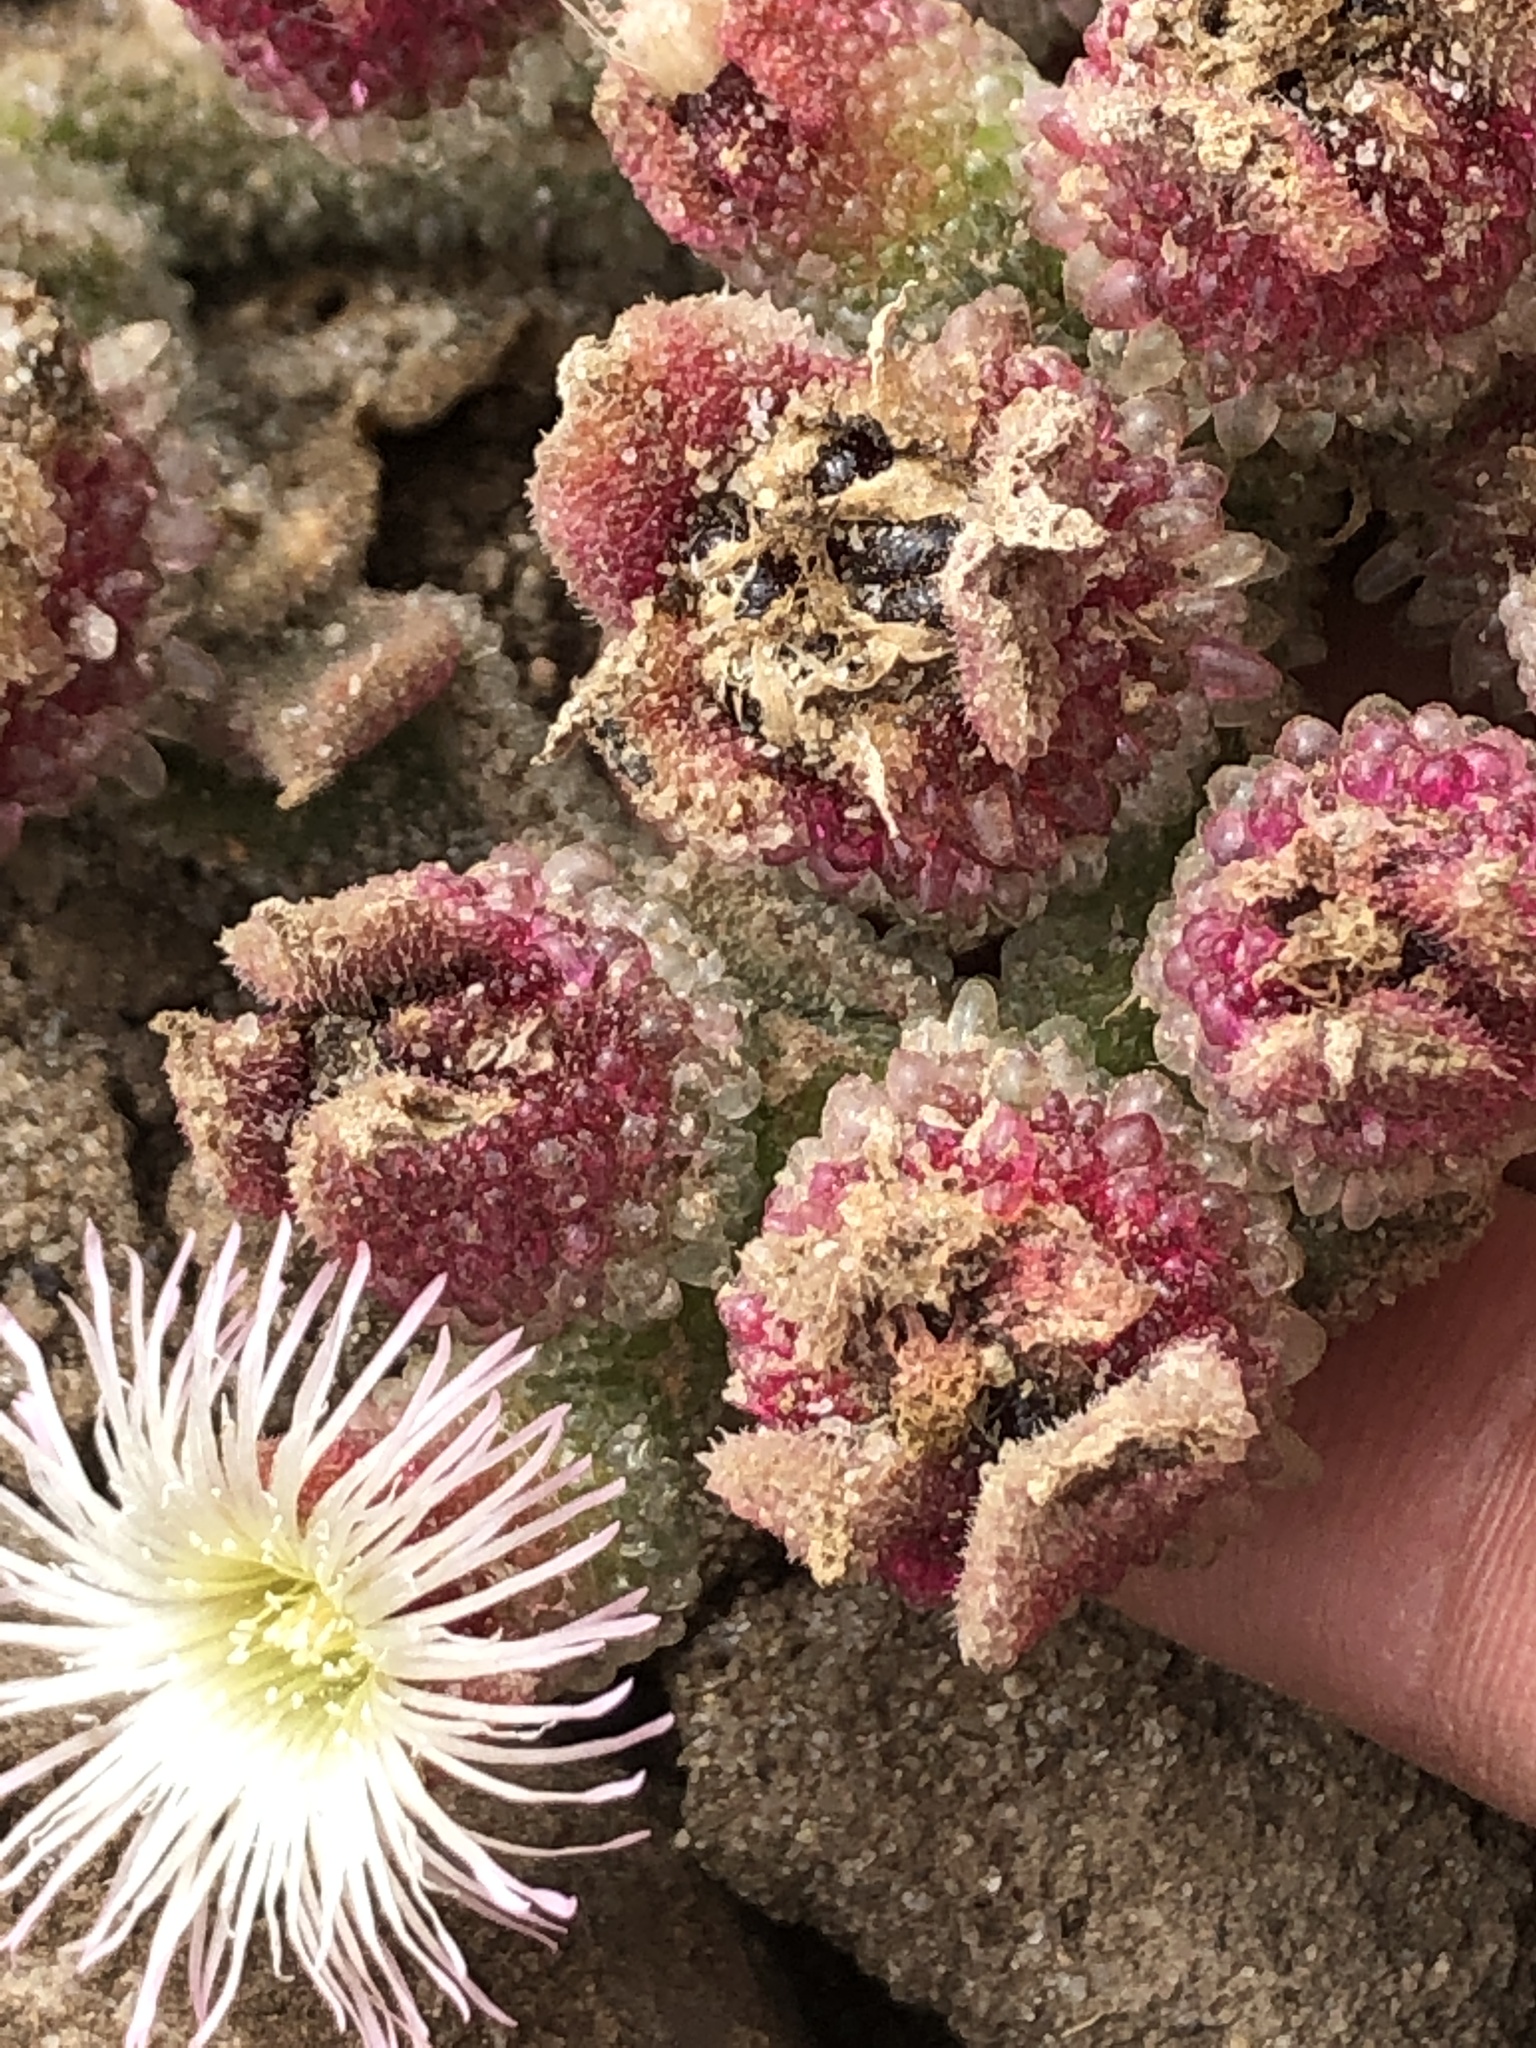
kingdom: Plantae
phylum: Tracheophyta
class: Magnoliopsida
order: Caryophyllales
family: Aizoaceae
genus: Mesembryanthemum
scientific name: Mesembryanthemum crystallinum
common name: Common iceplant
